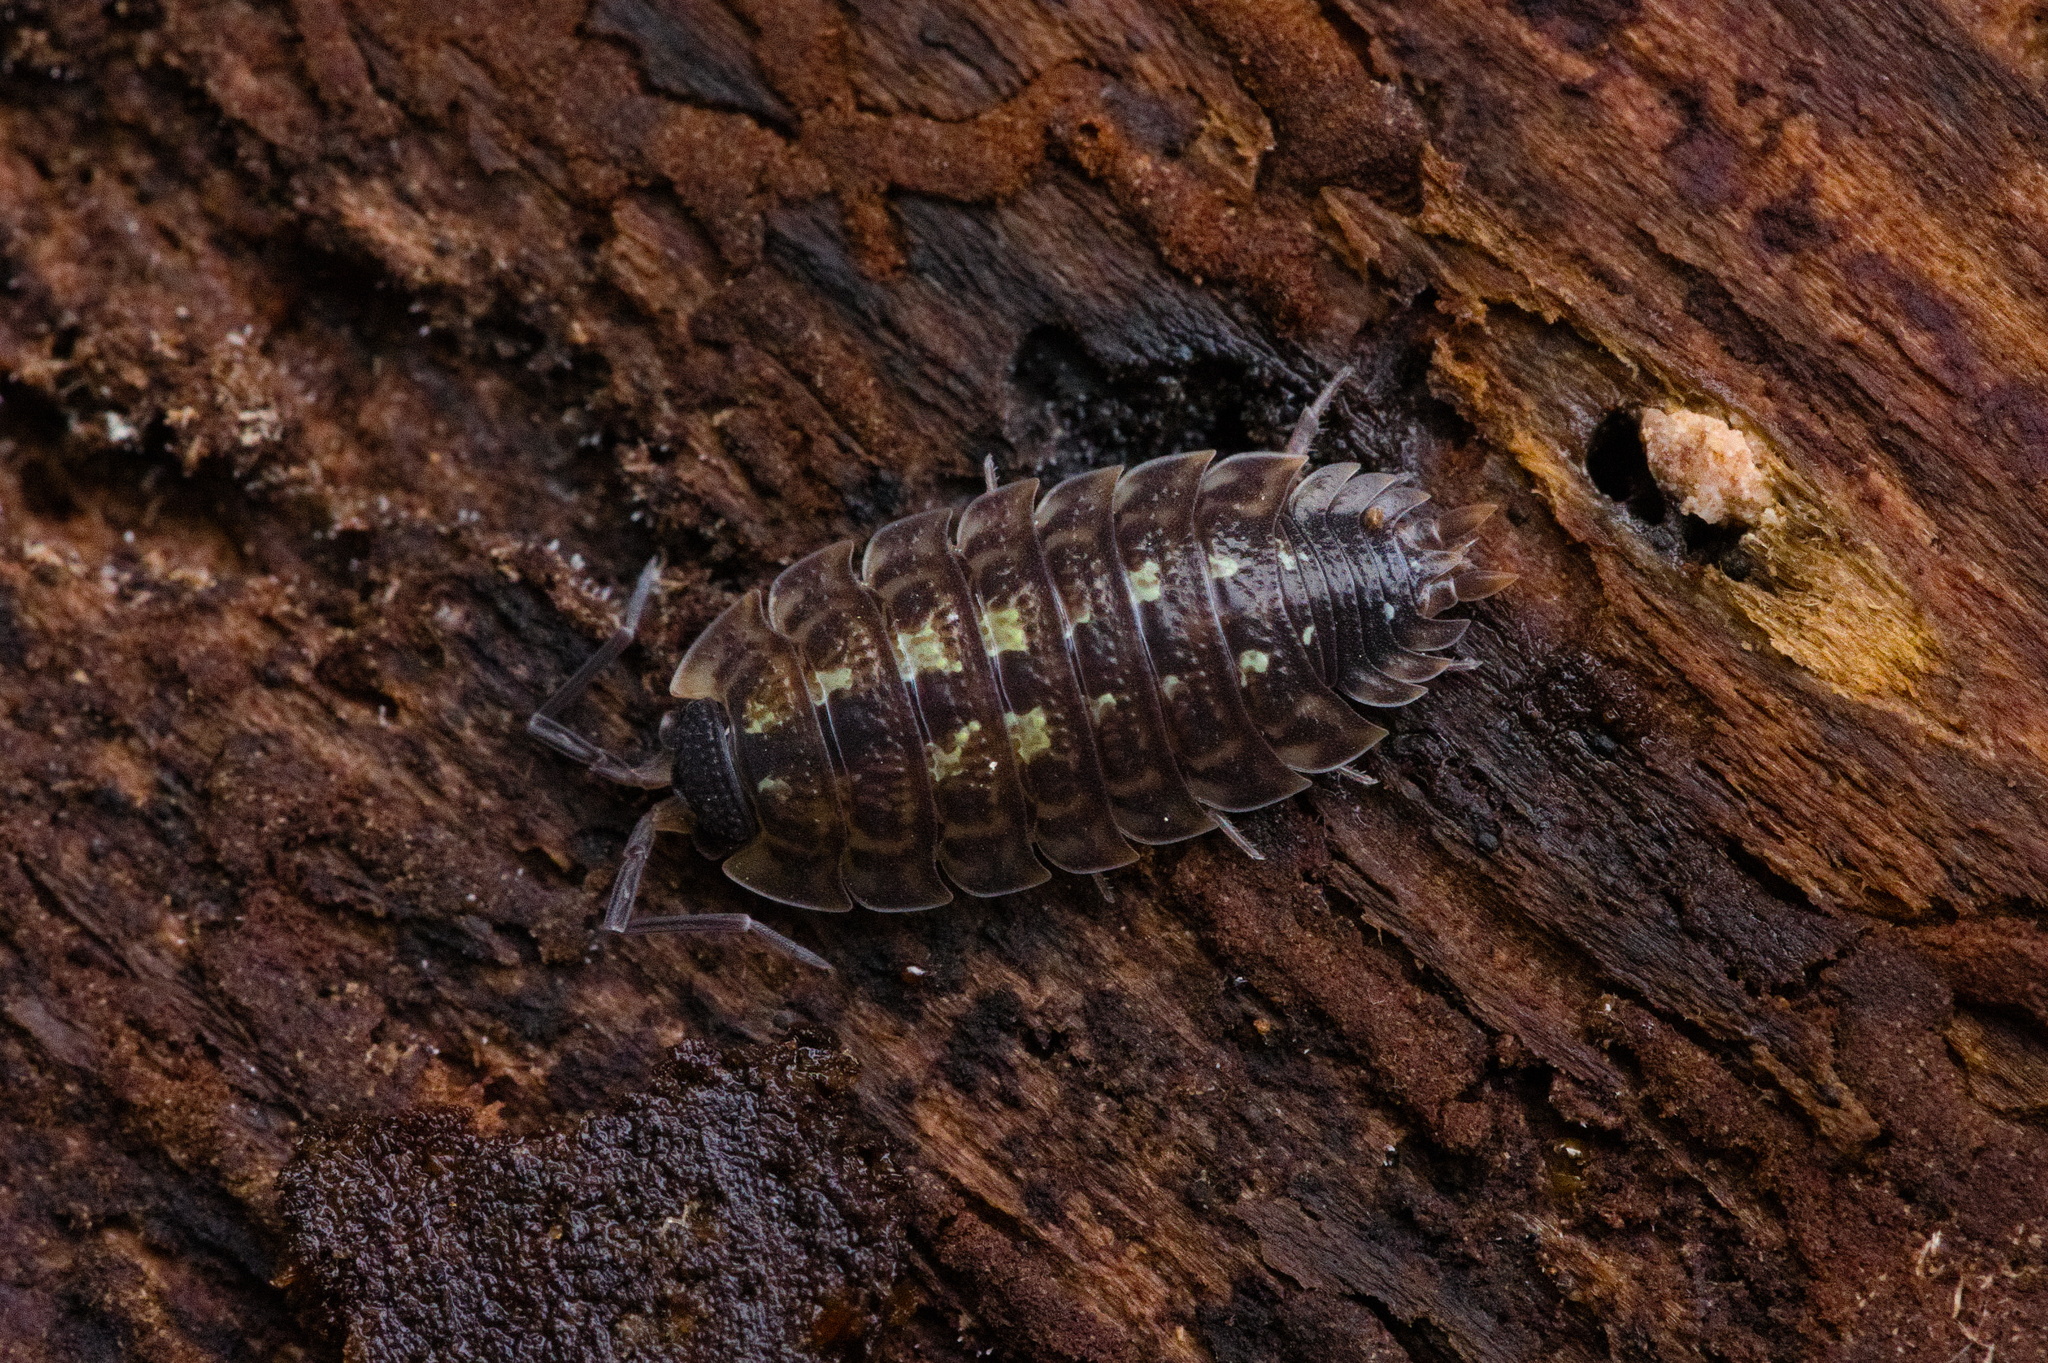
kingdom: Animalia
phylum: Arthropoda
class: Malacostraca
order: Isopoda
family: Porcellionidae
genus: Porcellio
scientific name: Porcellio spinicornis
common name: Painted woodlouse
